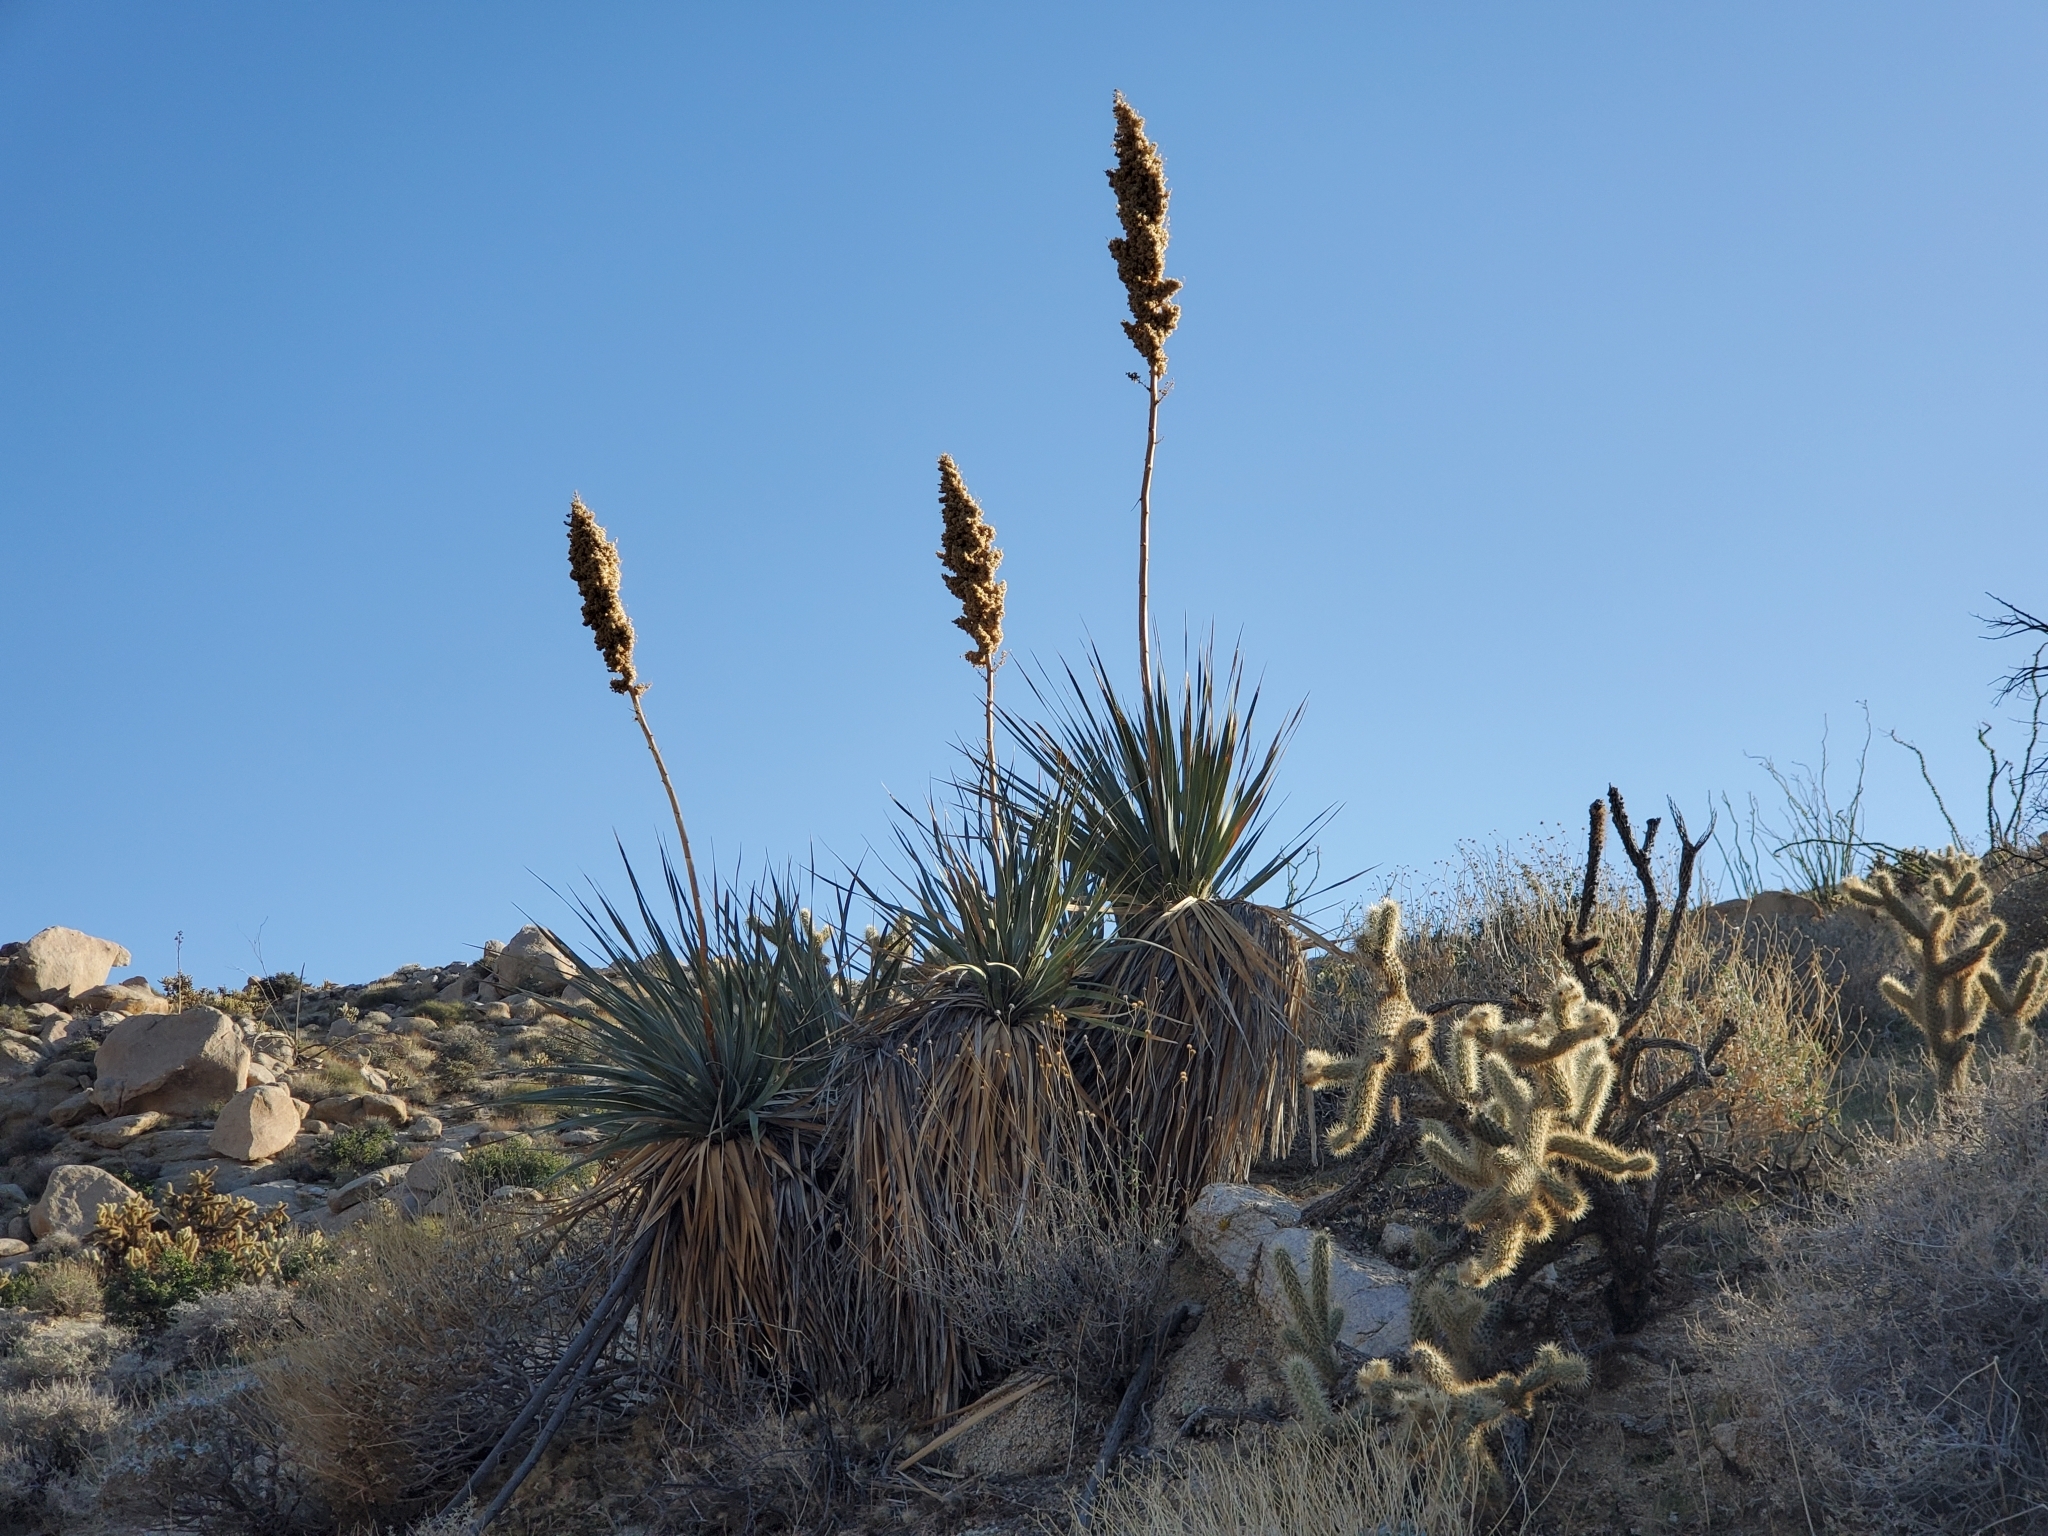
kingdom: Plantae
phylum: Tracheophyta
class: Liliopsida
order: Asparagales
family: Asparagaceae
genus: Nolina
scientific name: Nolina bigelovii
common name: Bigelow bear-grass
